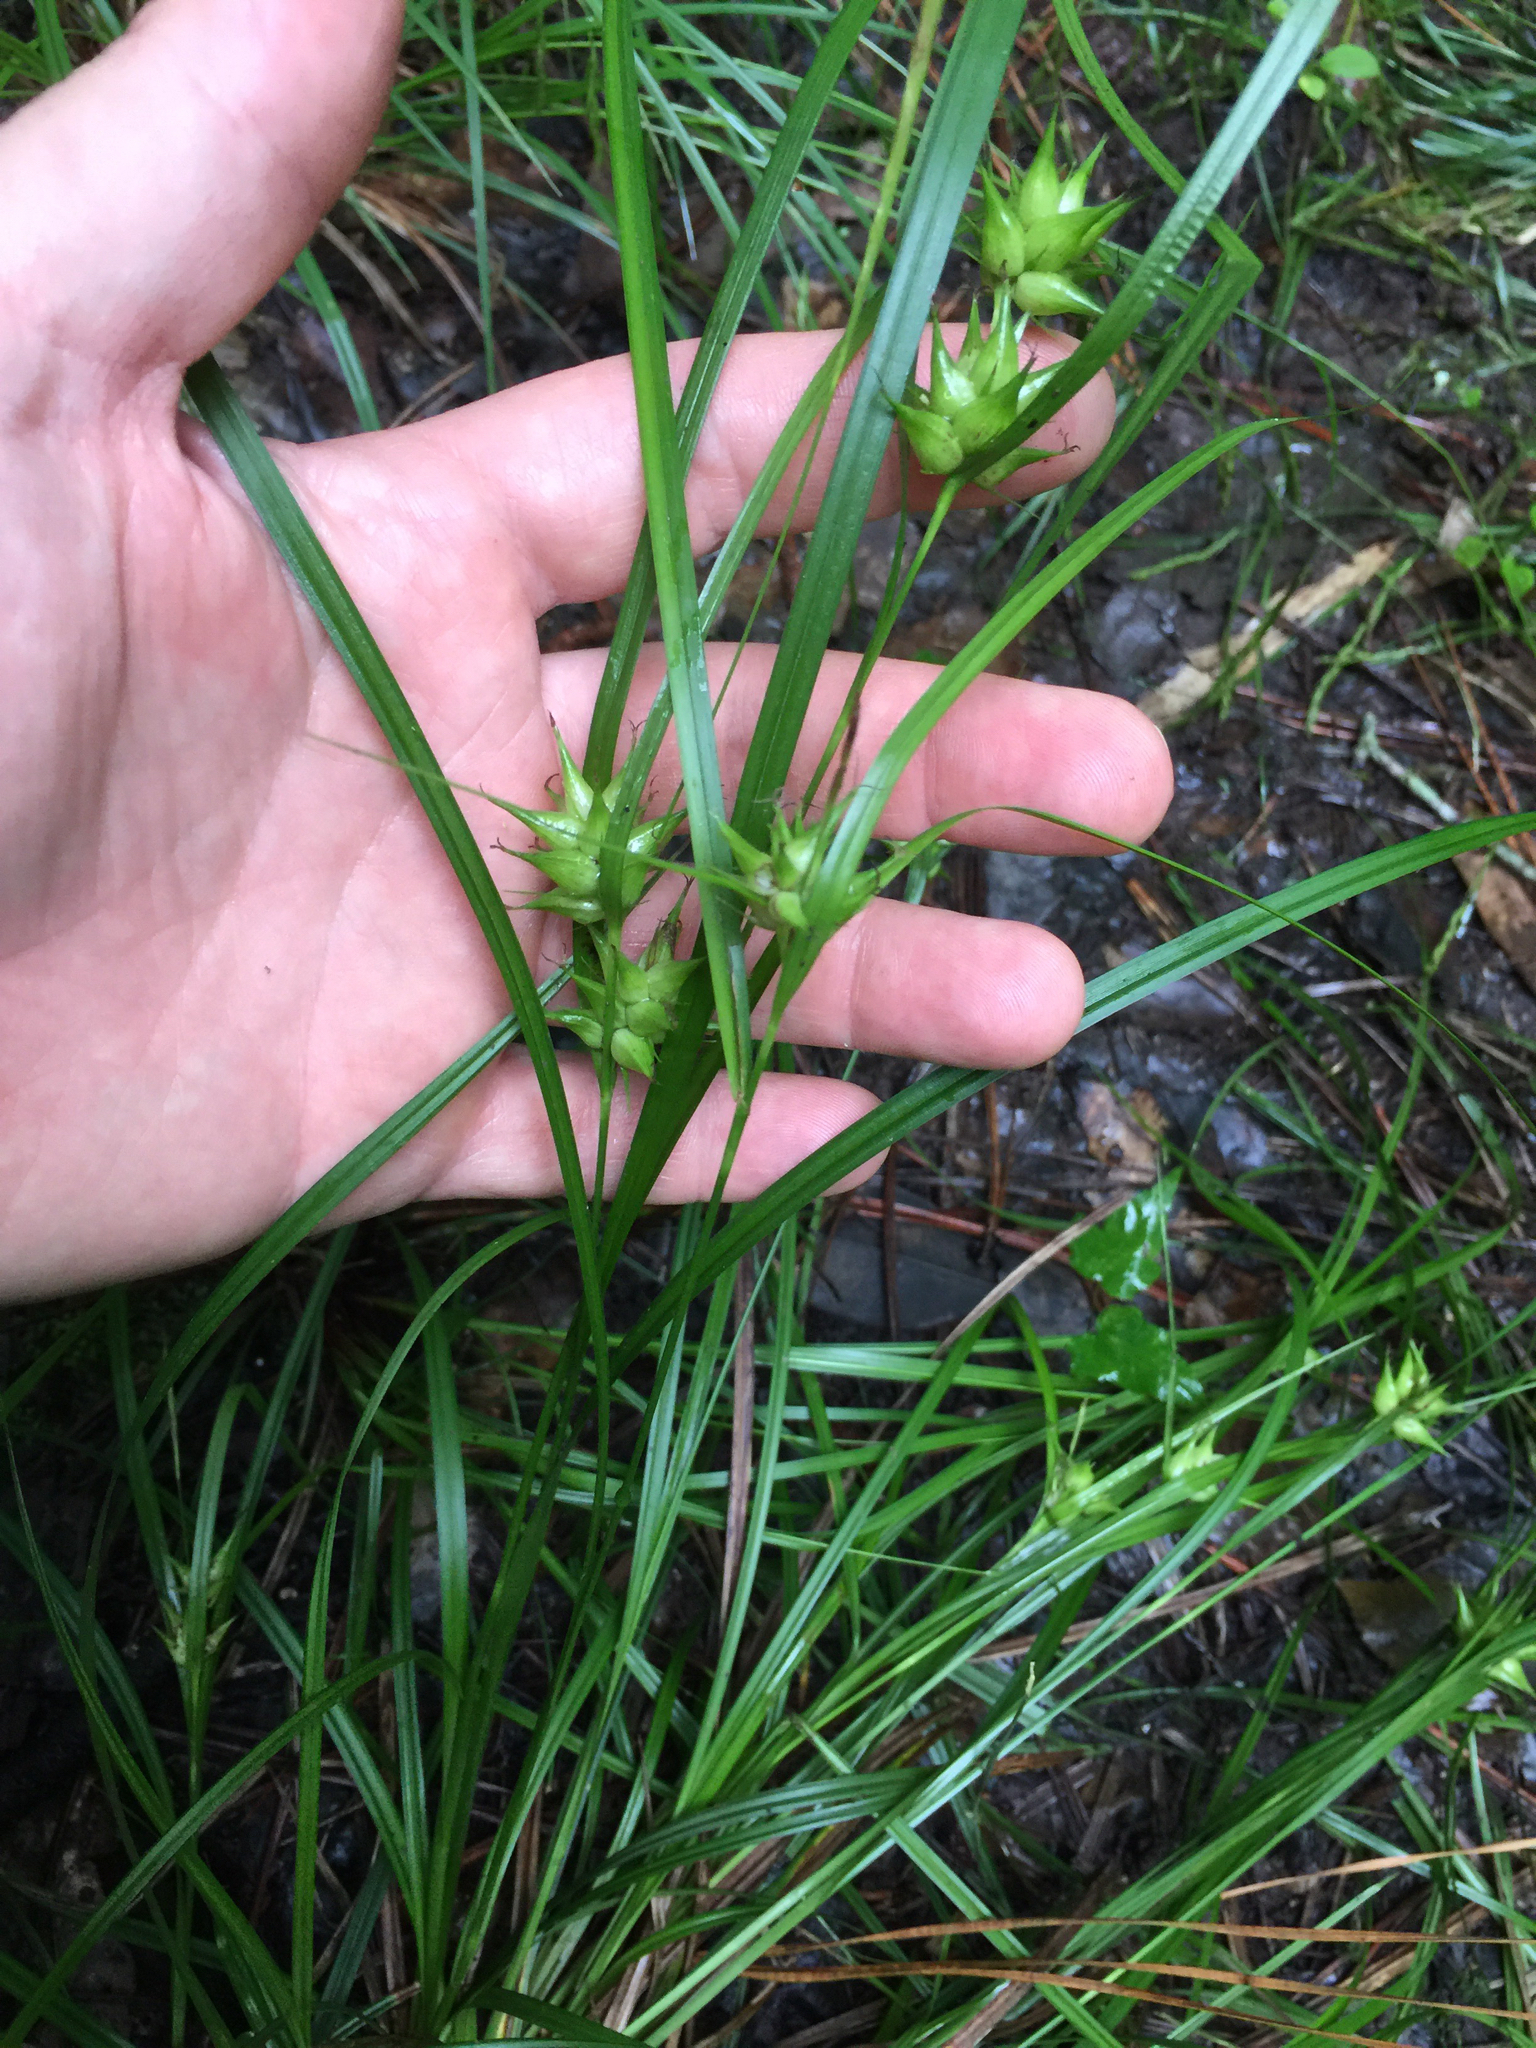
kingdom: Plantae
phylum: Tracheophyta
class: Liliopsida
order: Poales
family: Cyperaceae
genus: Carex
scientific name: Carex intumescens
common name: Greater bladder sedge
